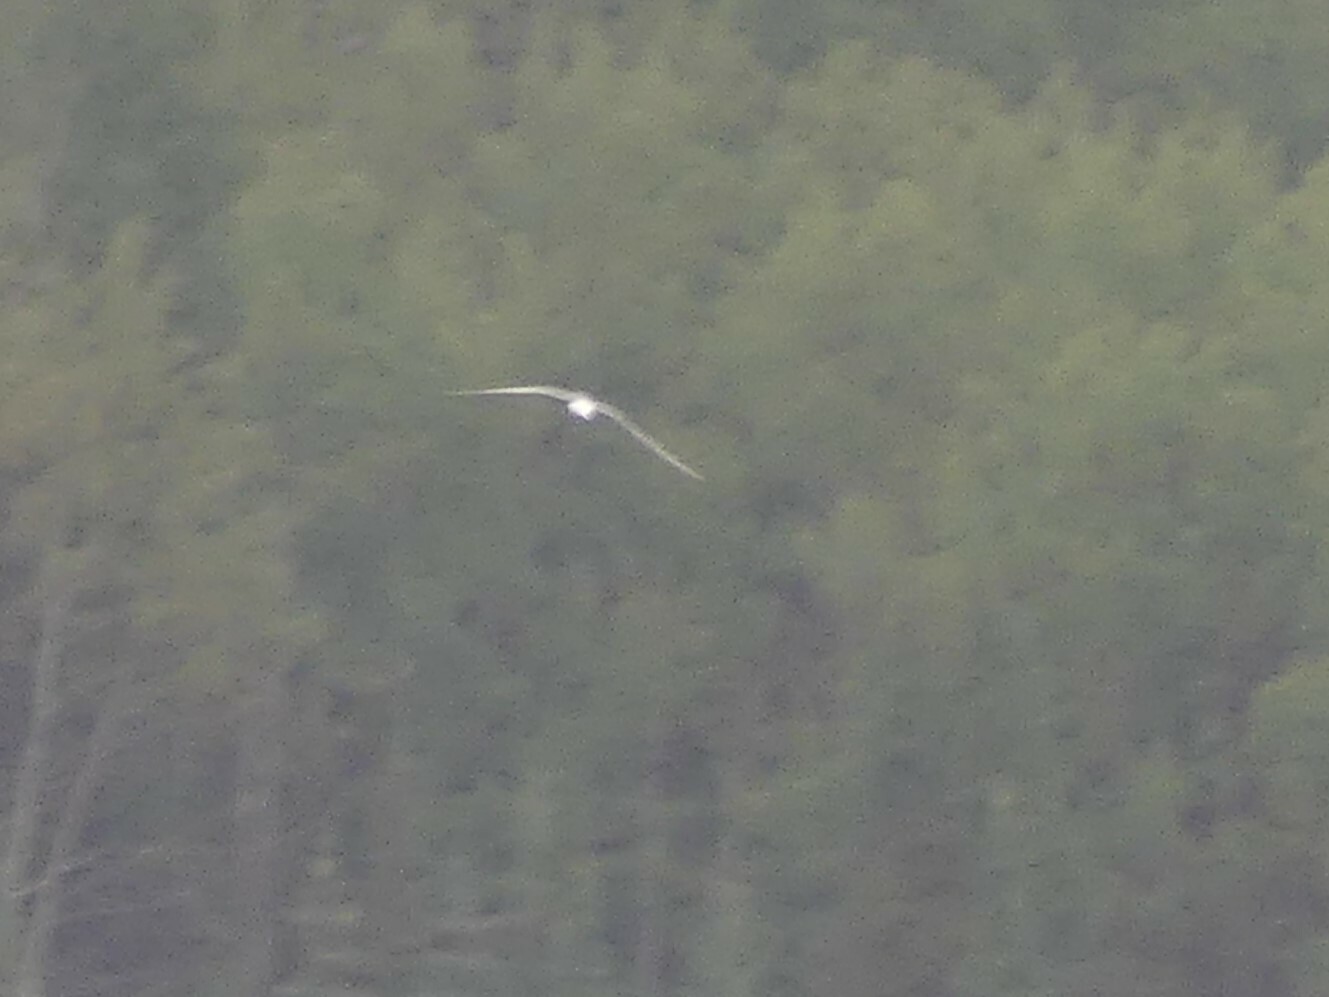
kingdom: Animalia
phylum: Chordata
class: Aves
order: Charadriiformes
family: Laridae
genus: Sterna
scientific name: Sterna paradisaea
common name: Arctic tern
